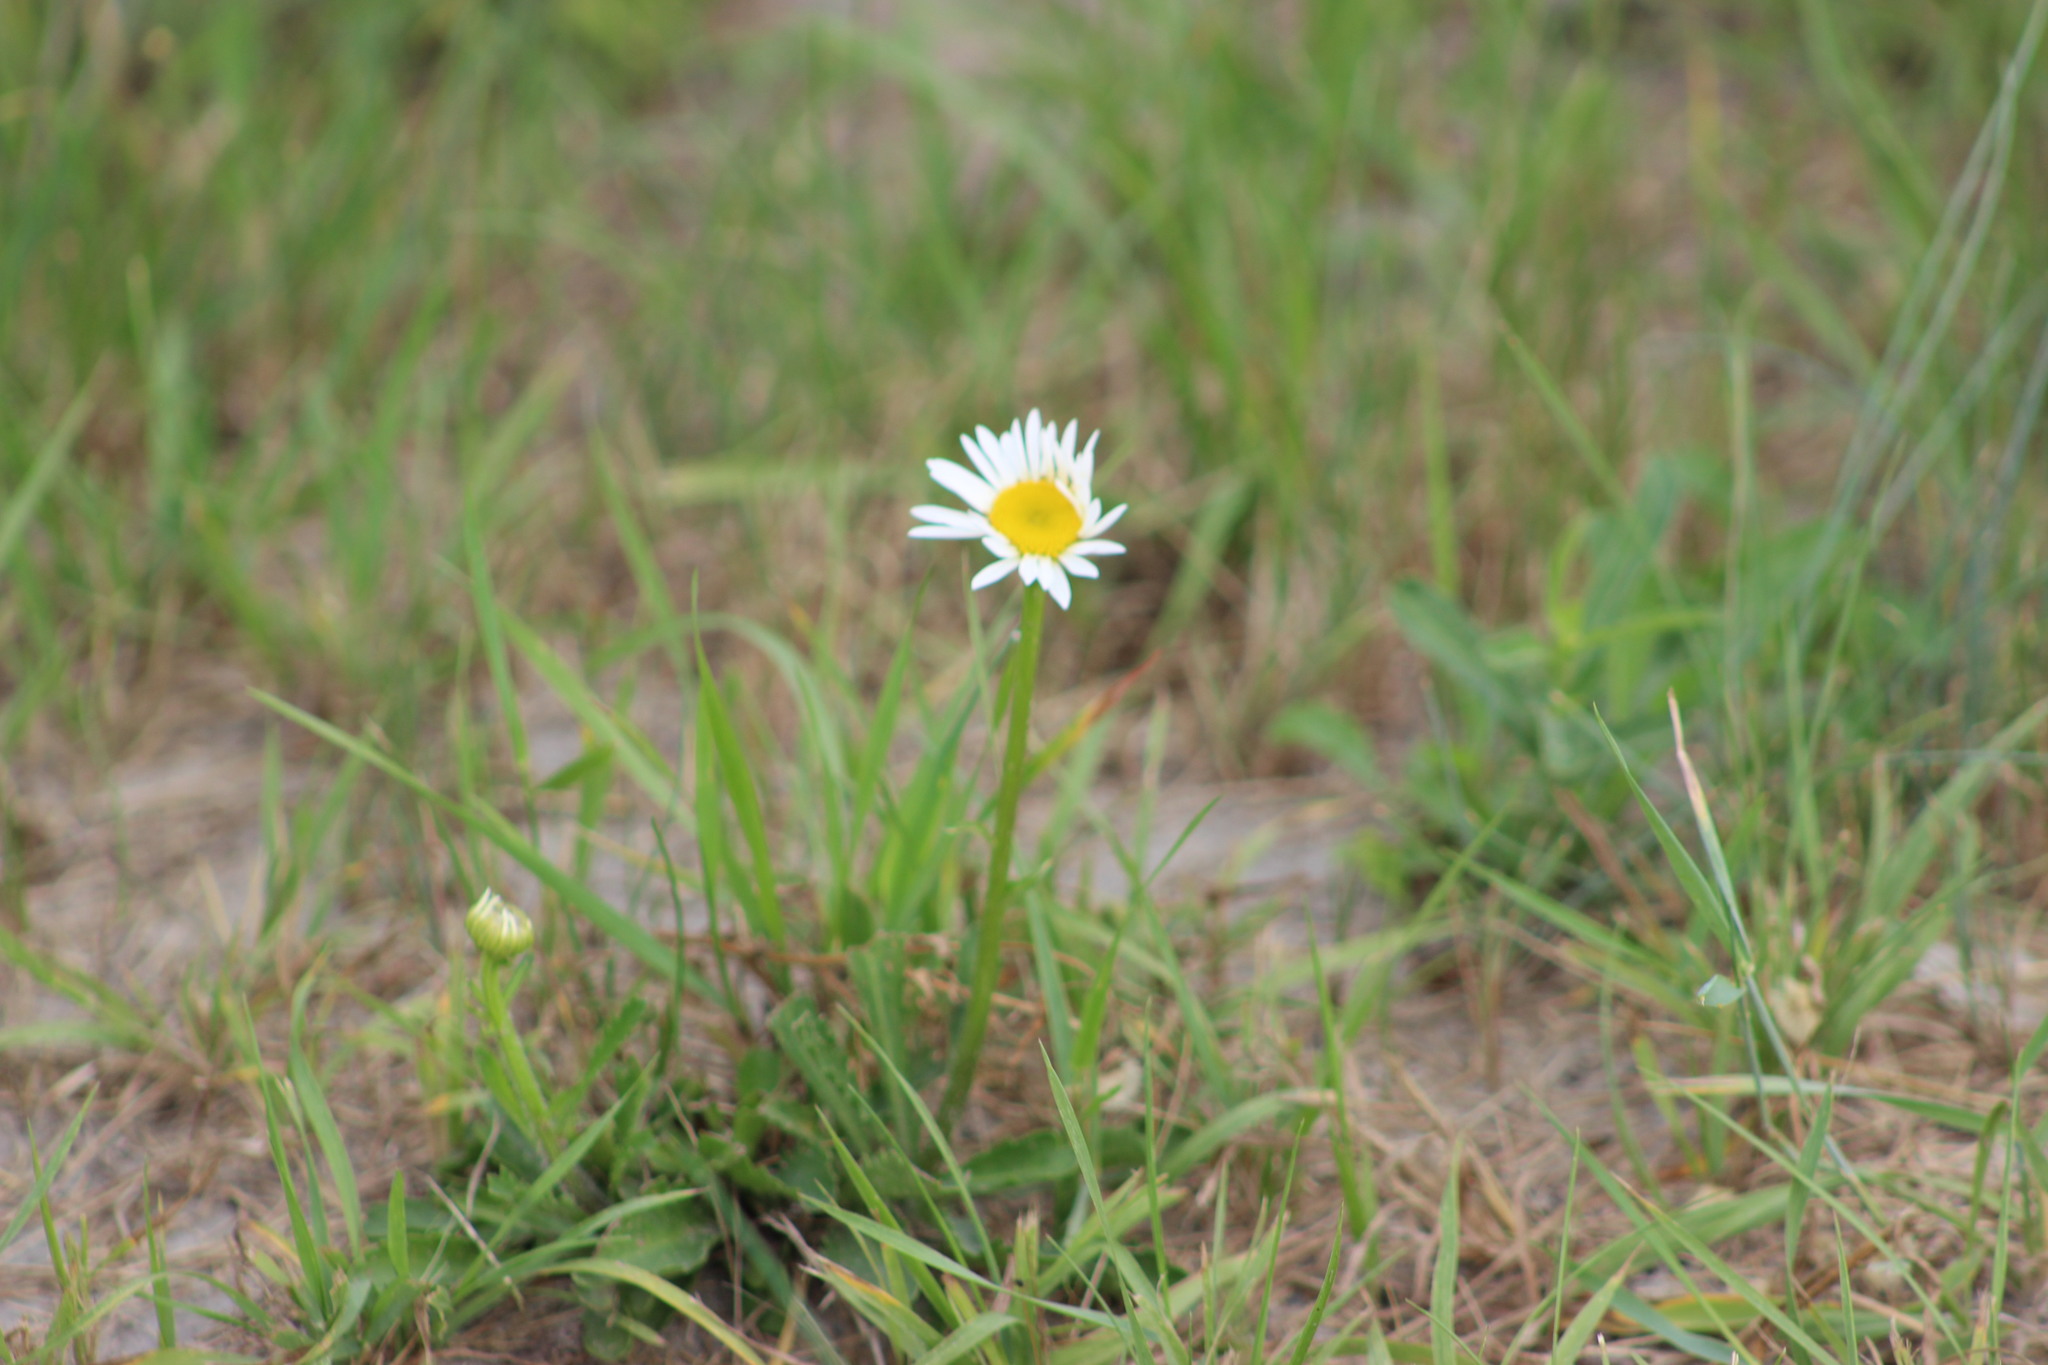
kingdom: Plantae
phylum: Tracheophyta
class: Magnoliopsida
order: Asterales
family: Asteraceae
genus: Leucanthemum
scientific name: Leucanthemum ircutianum
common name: Daisy
